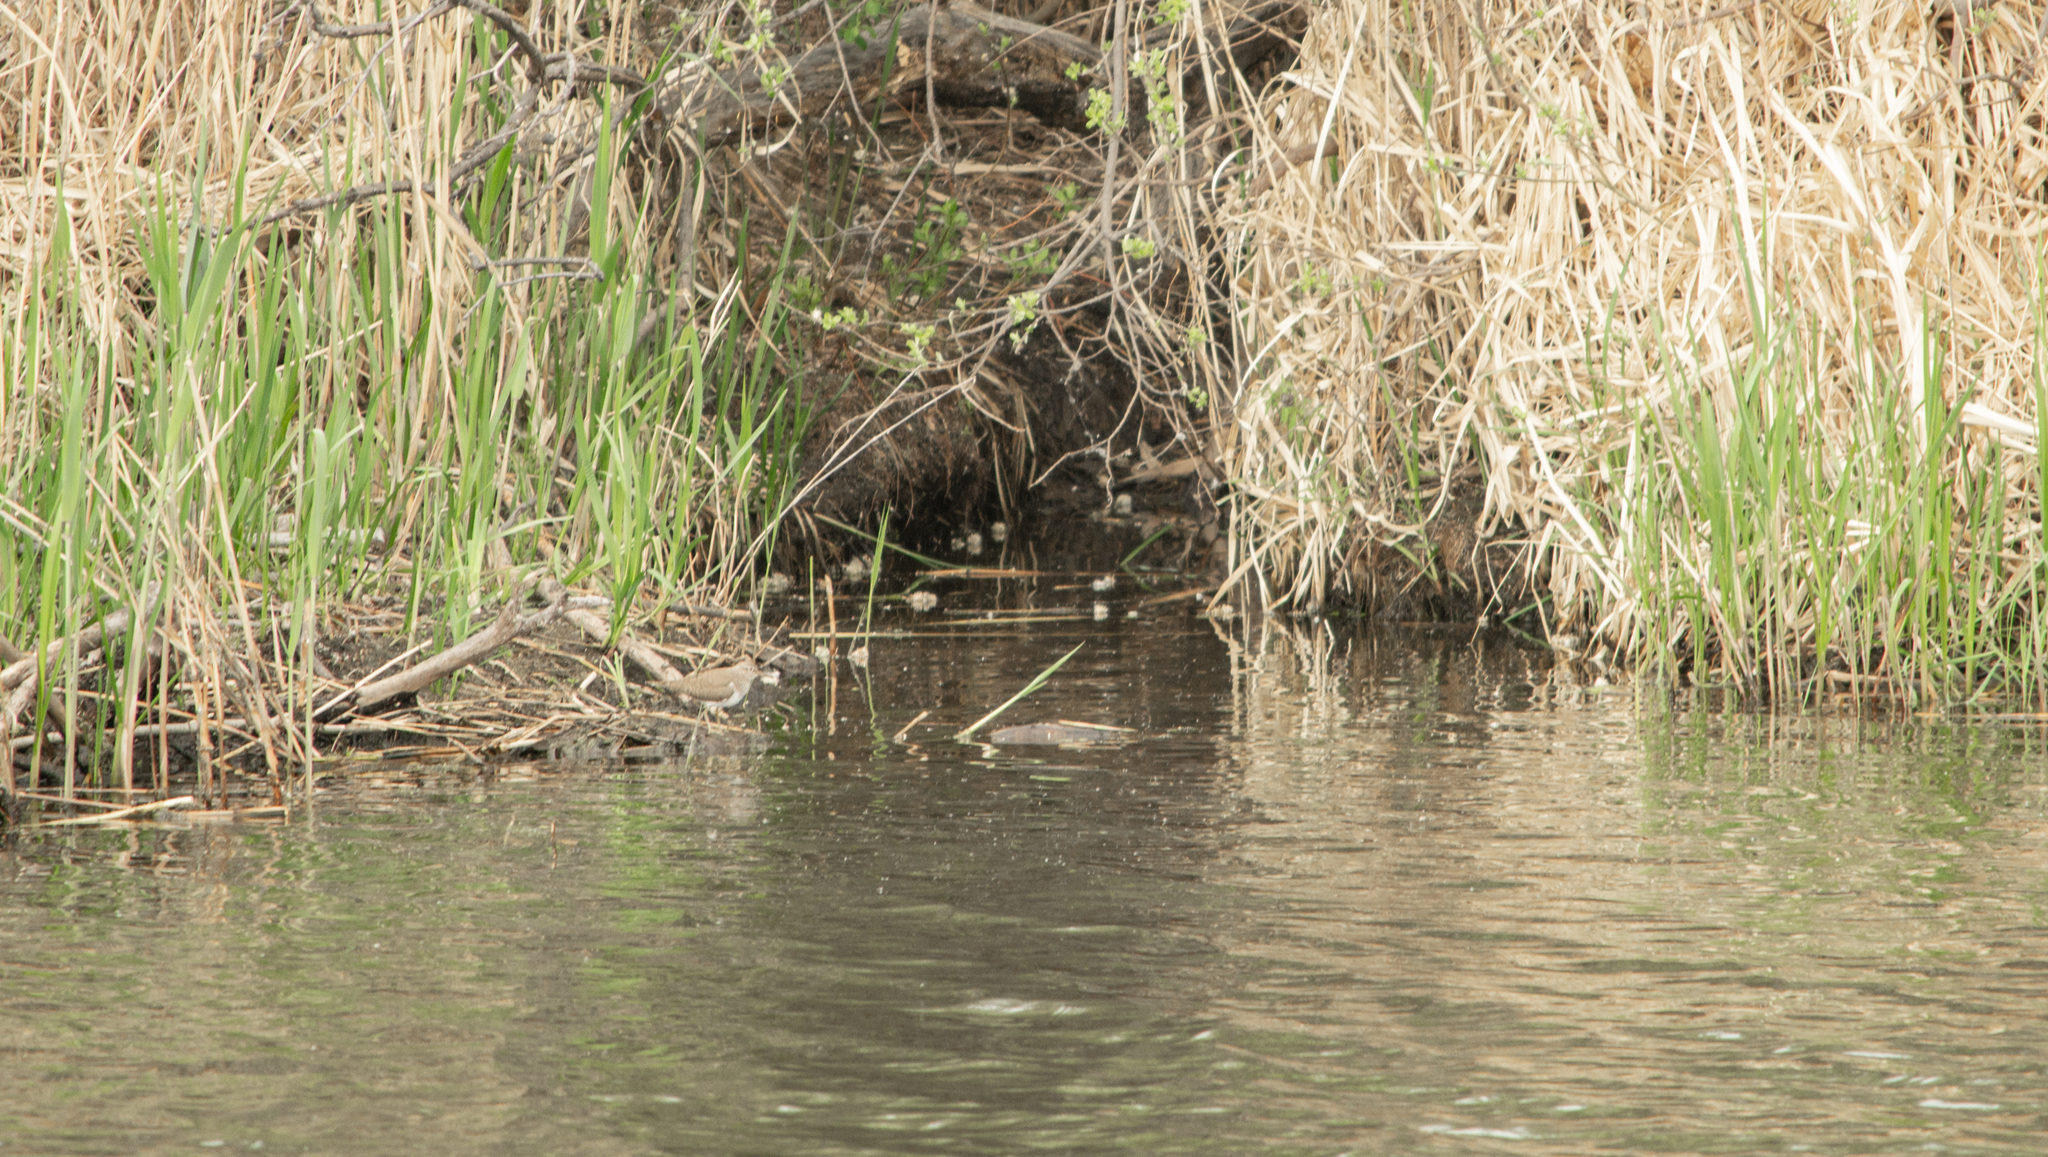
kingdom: Animalia
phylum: Chordata
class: Aves
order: Charadriiformes
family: Scolopacidae
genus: Actitis
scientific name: Actitis hypoleucos
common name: Common sandpiper
